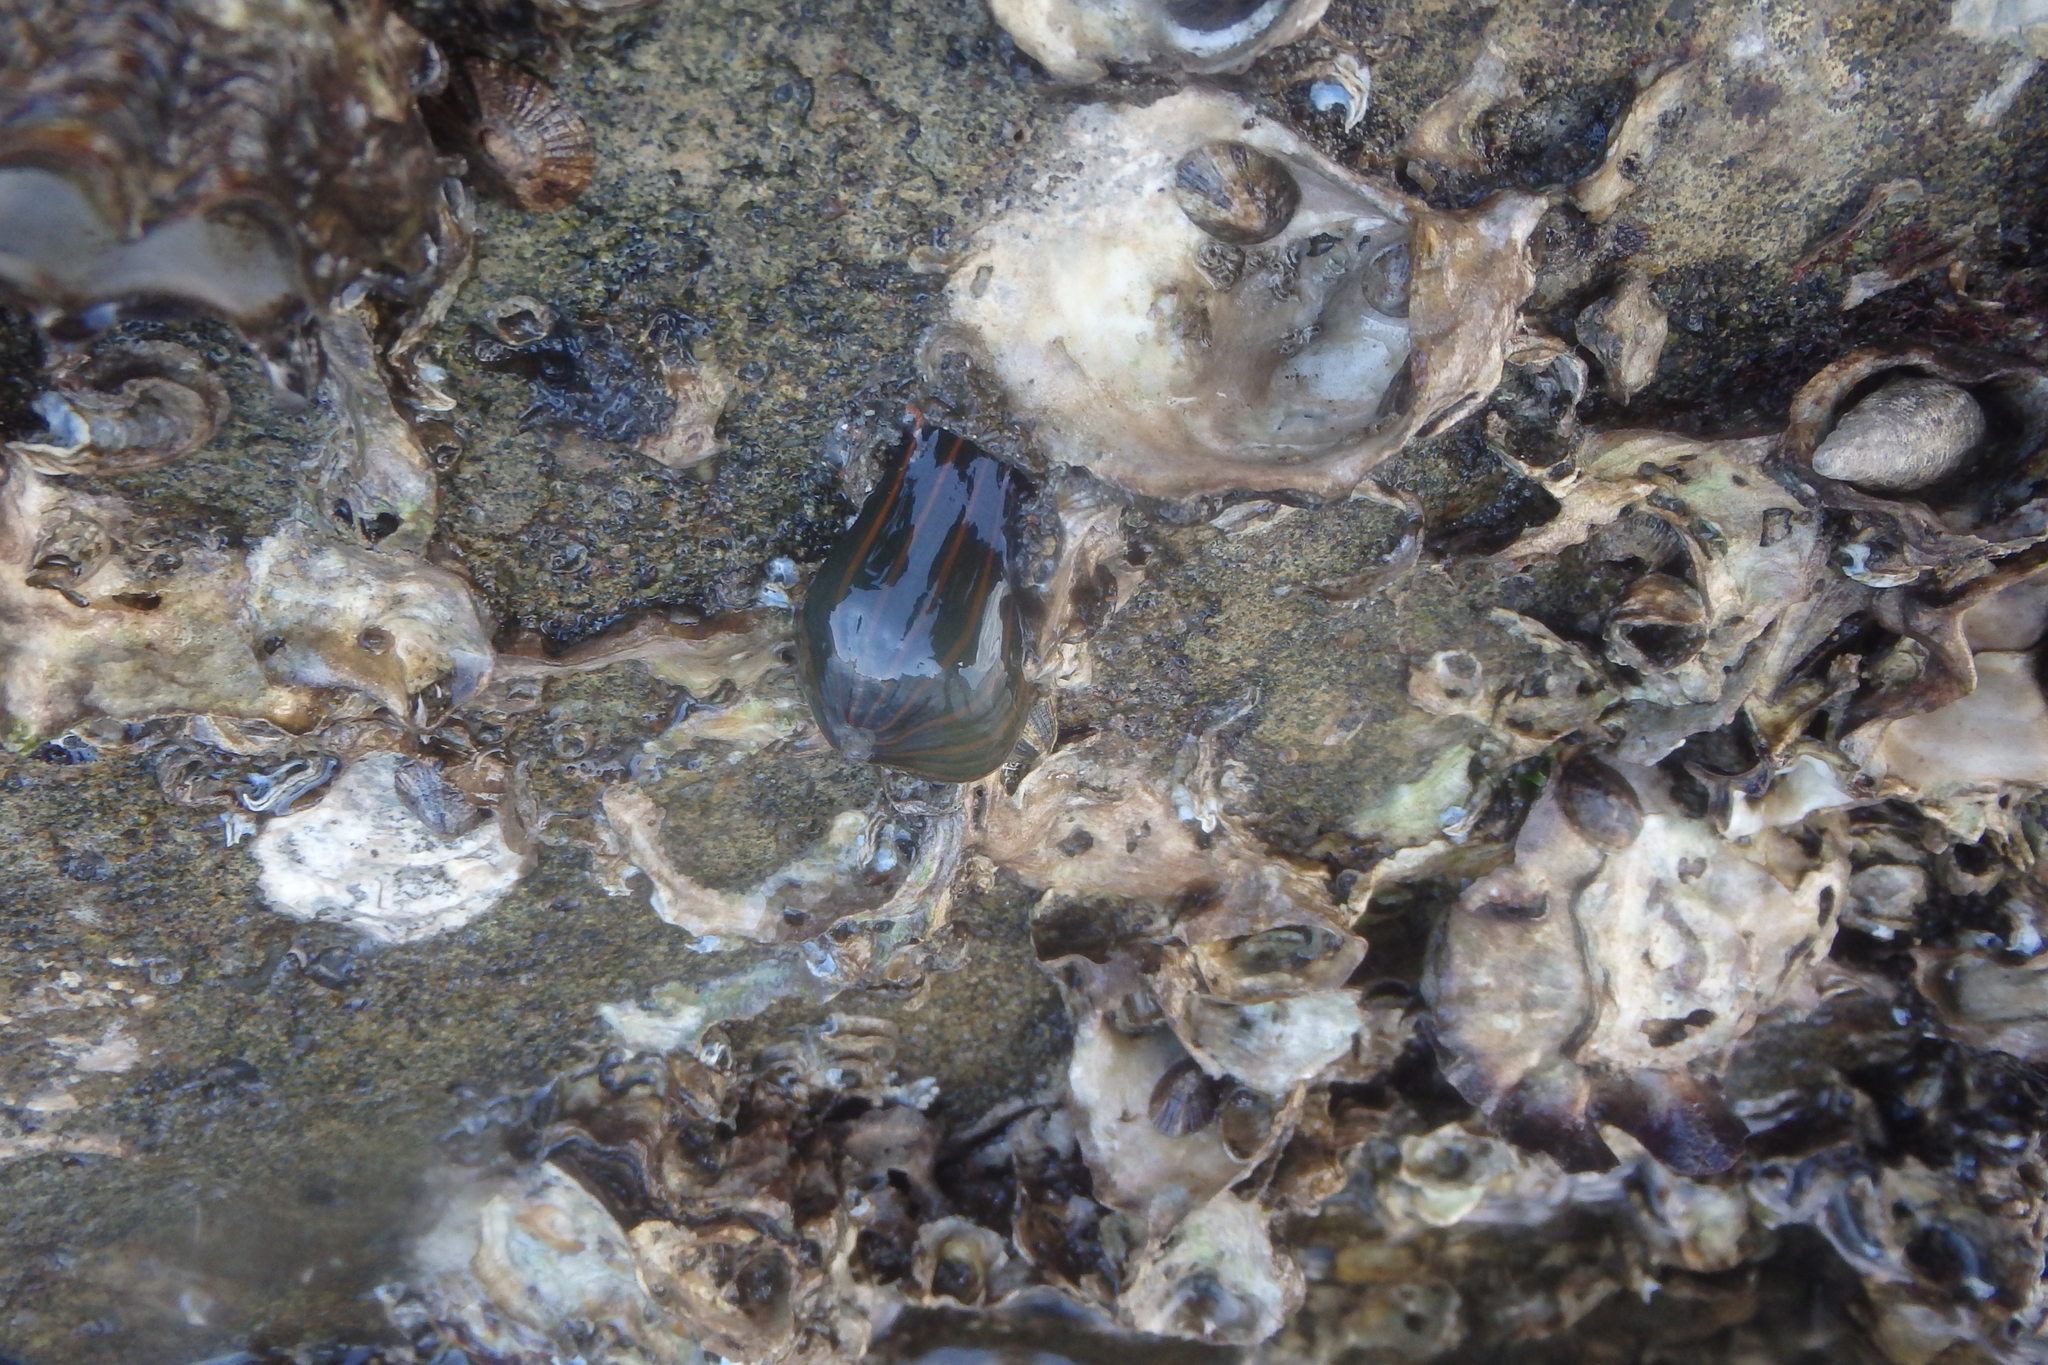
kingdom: Animalia
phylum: Cnidaria
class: Anthozoa
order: Actiniaria
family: Diadumenidae
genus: Diadumene
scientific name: Diadumene lineata
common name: Orange-striped anemone
